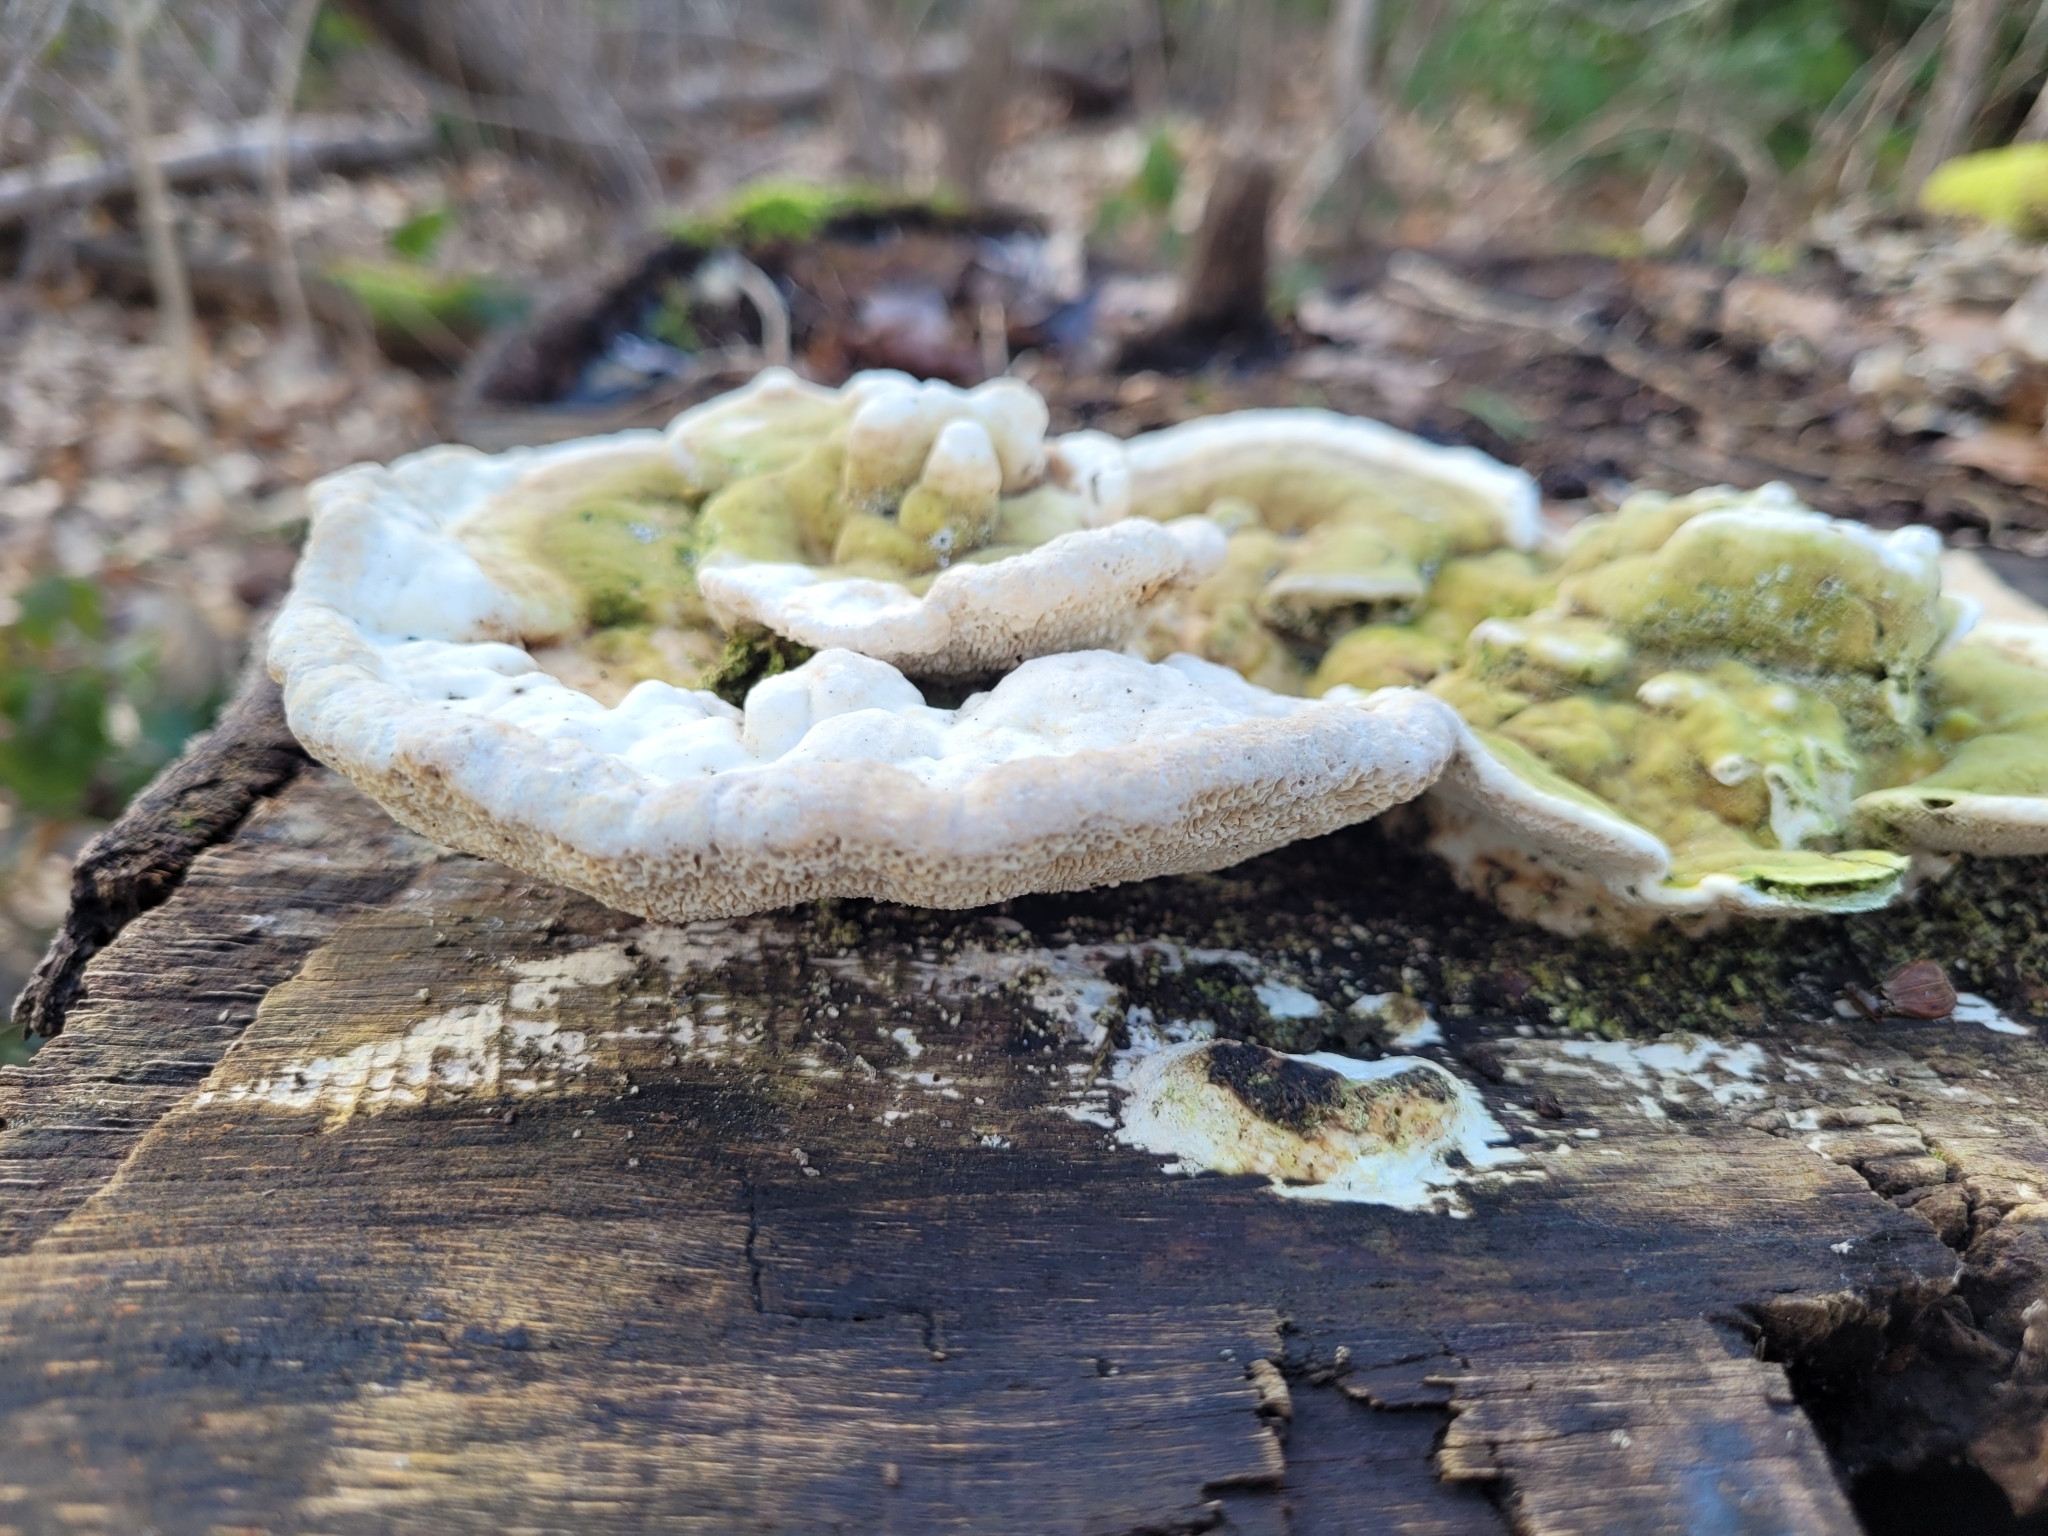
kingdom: Fungi
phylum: Basidiomycota
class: Agaricomycetes
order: Polyporales
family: Polyporaceae
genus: Trametes
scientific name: Trametes gibbosa
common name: Lumpy bracket
